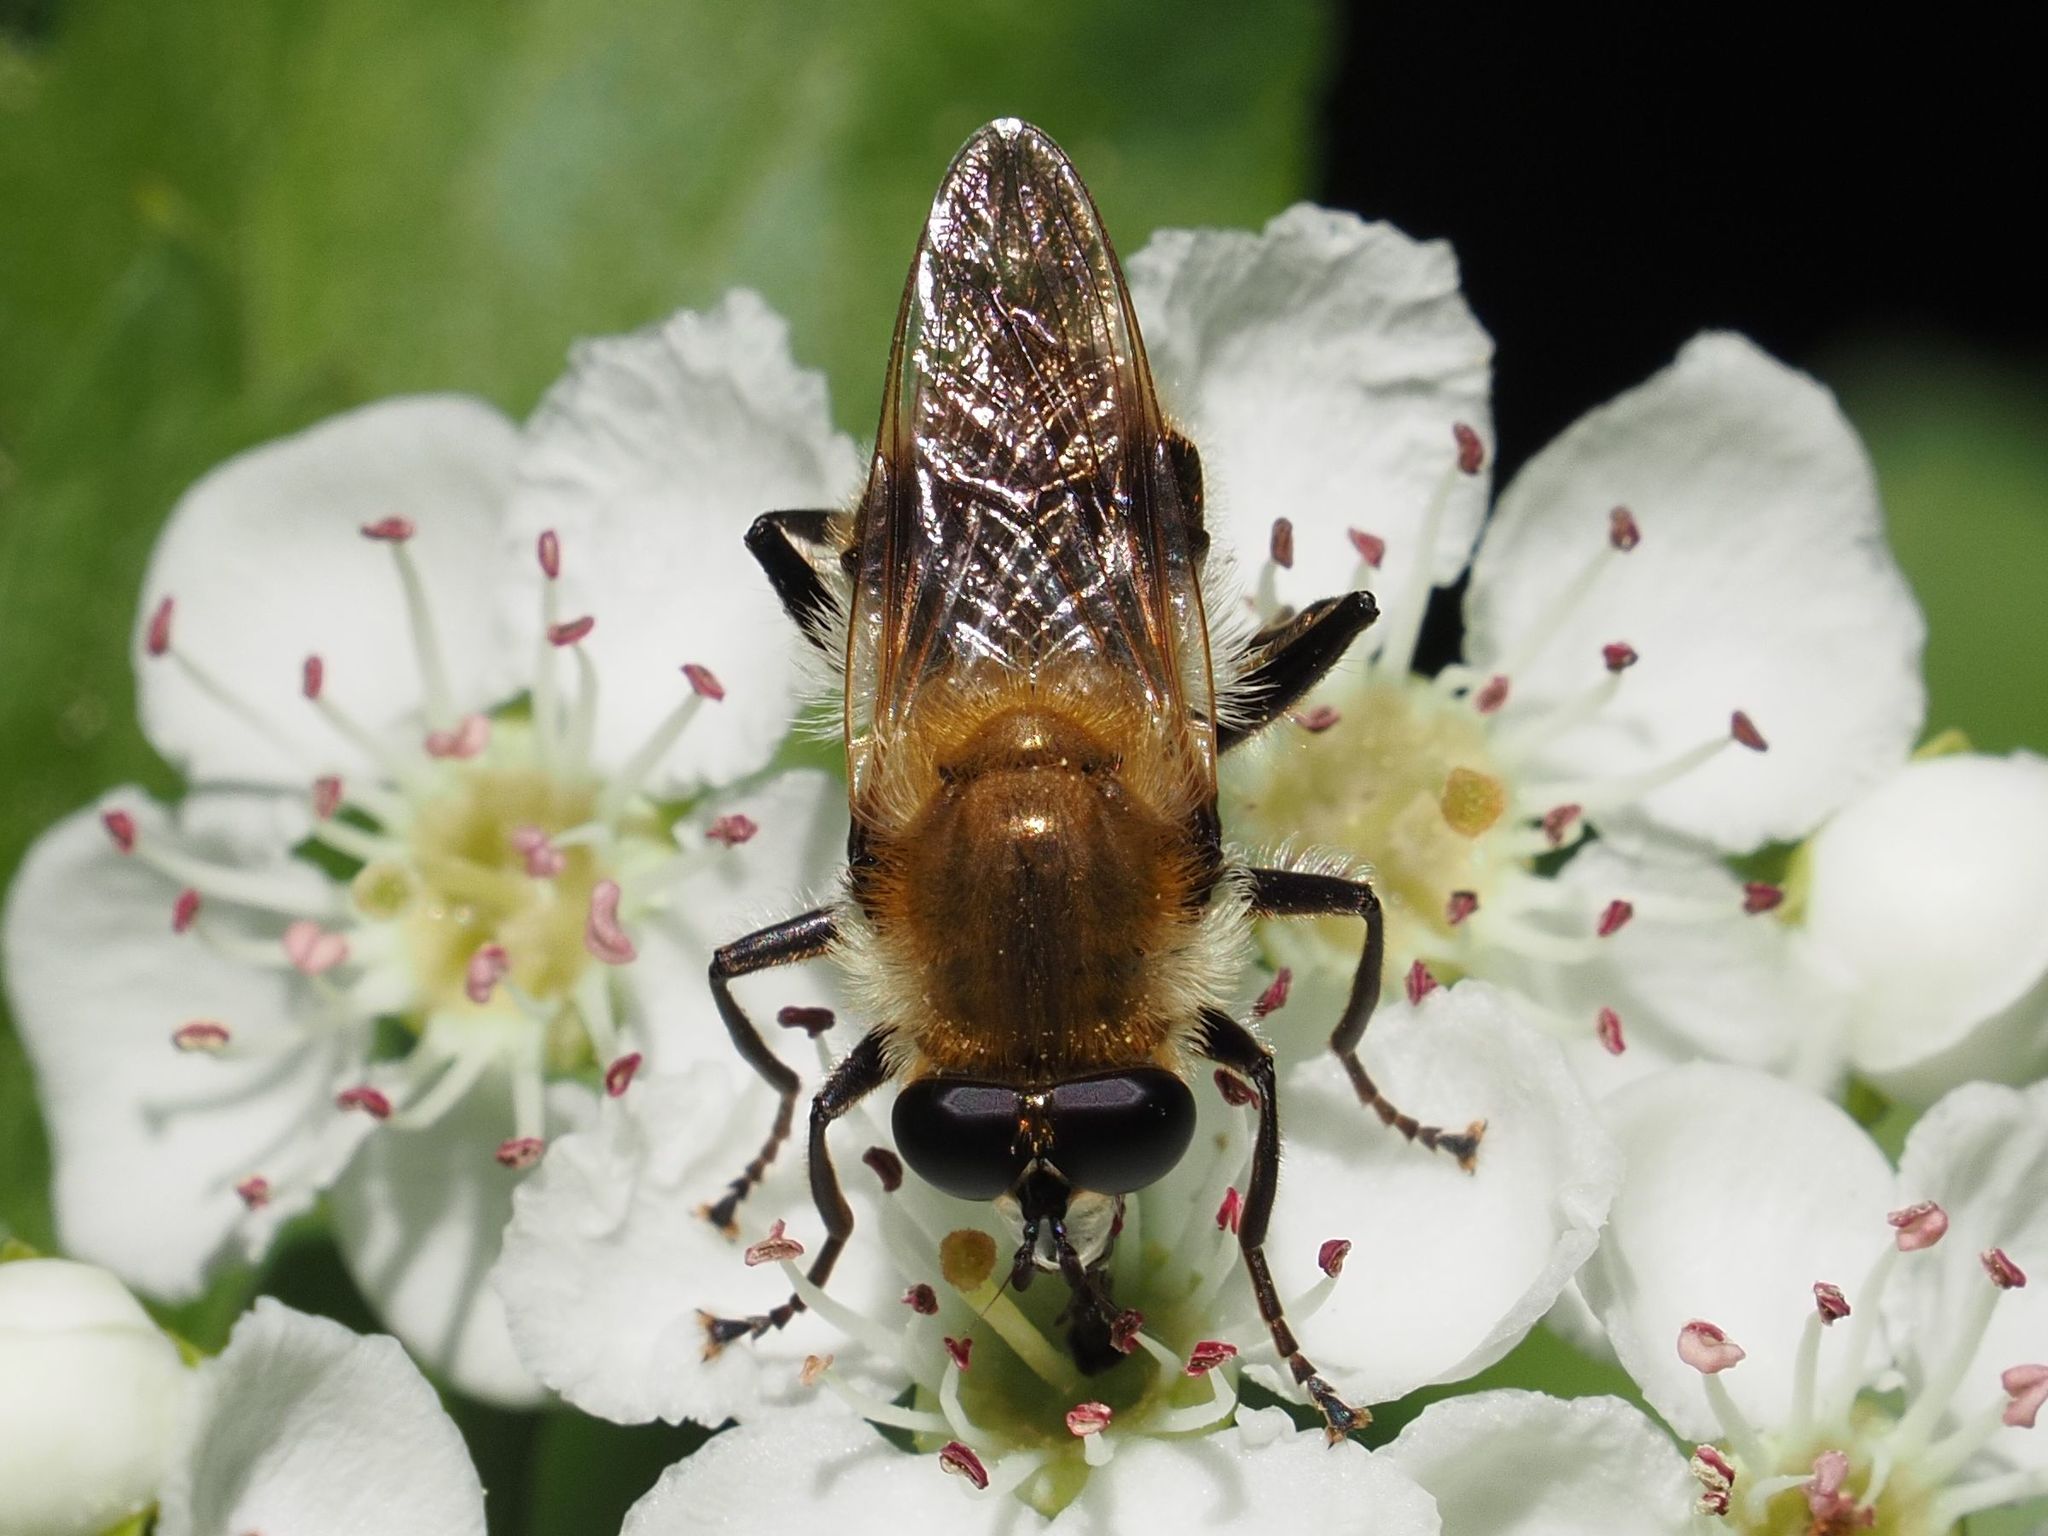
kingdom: Animalia
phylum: Arthropoda
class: Insecta
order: Diptera
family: Syrphidae
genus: Criorhina
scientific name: Criorhina floccosa
